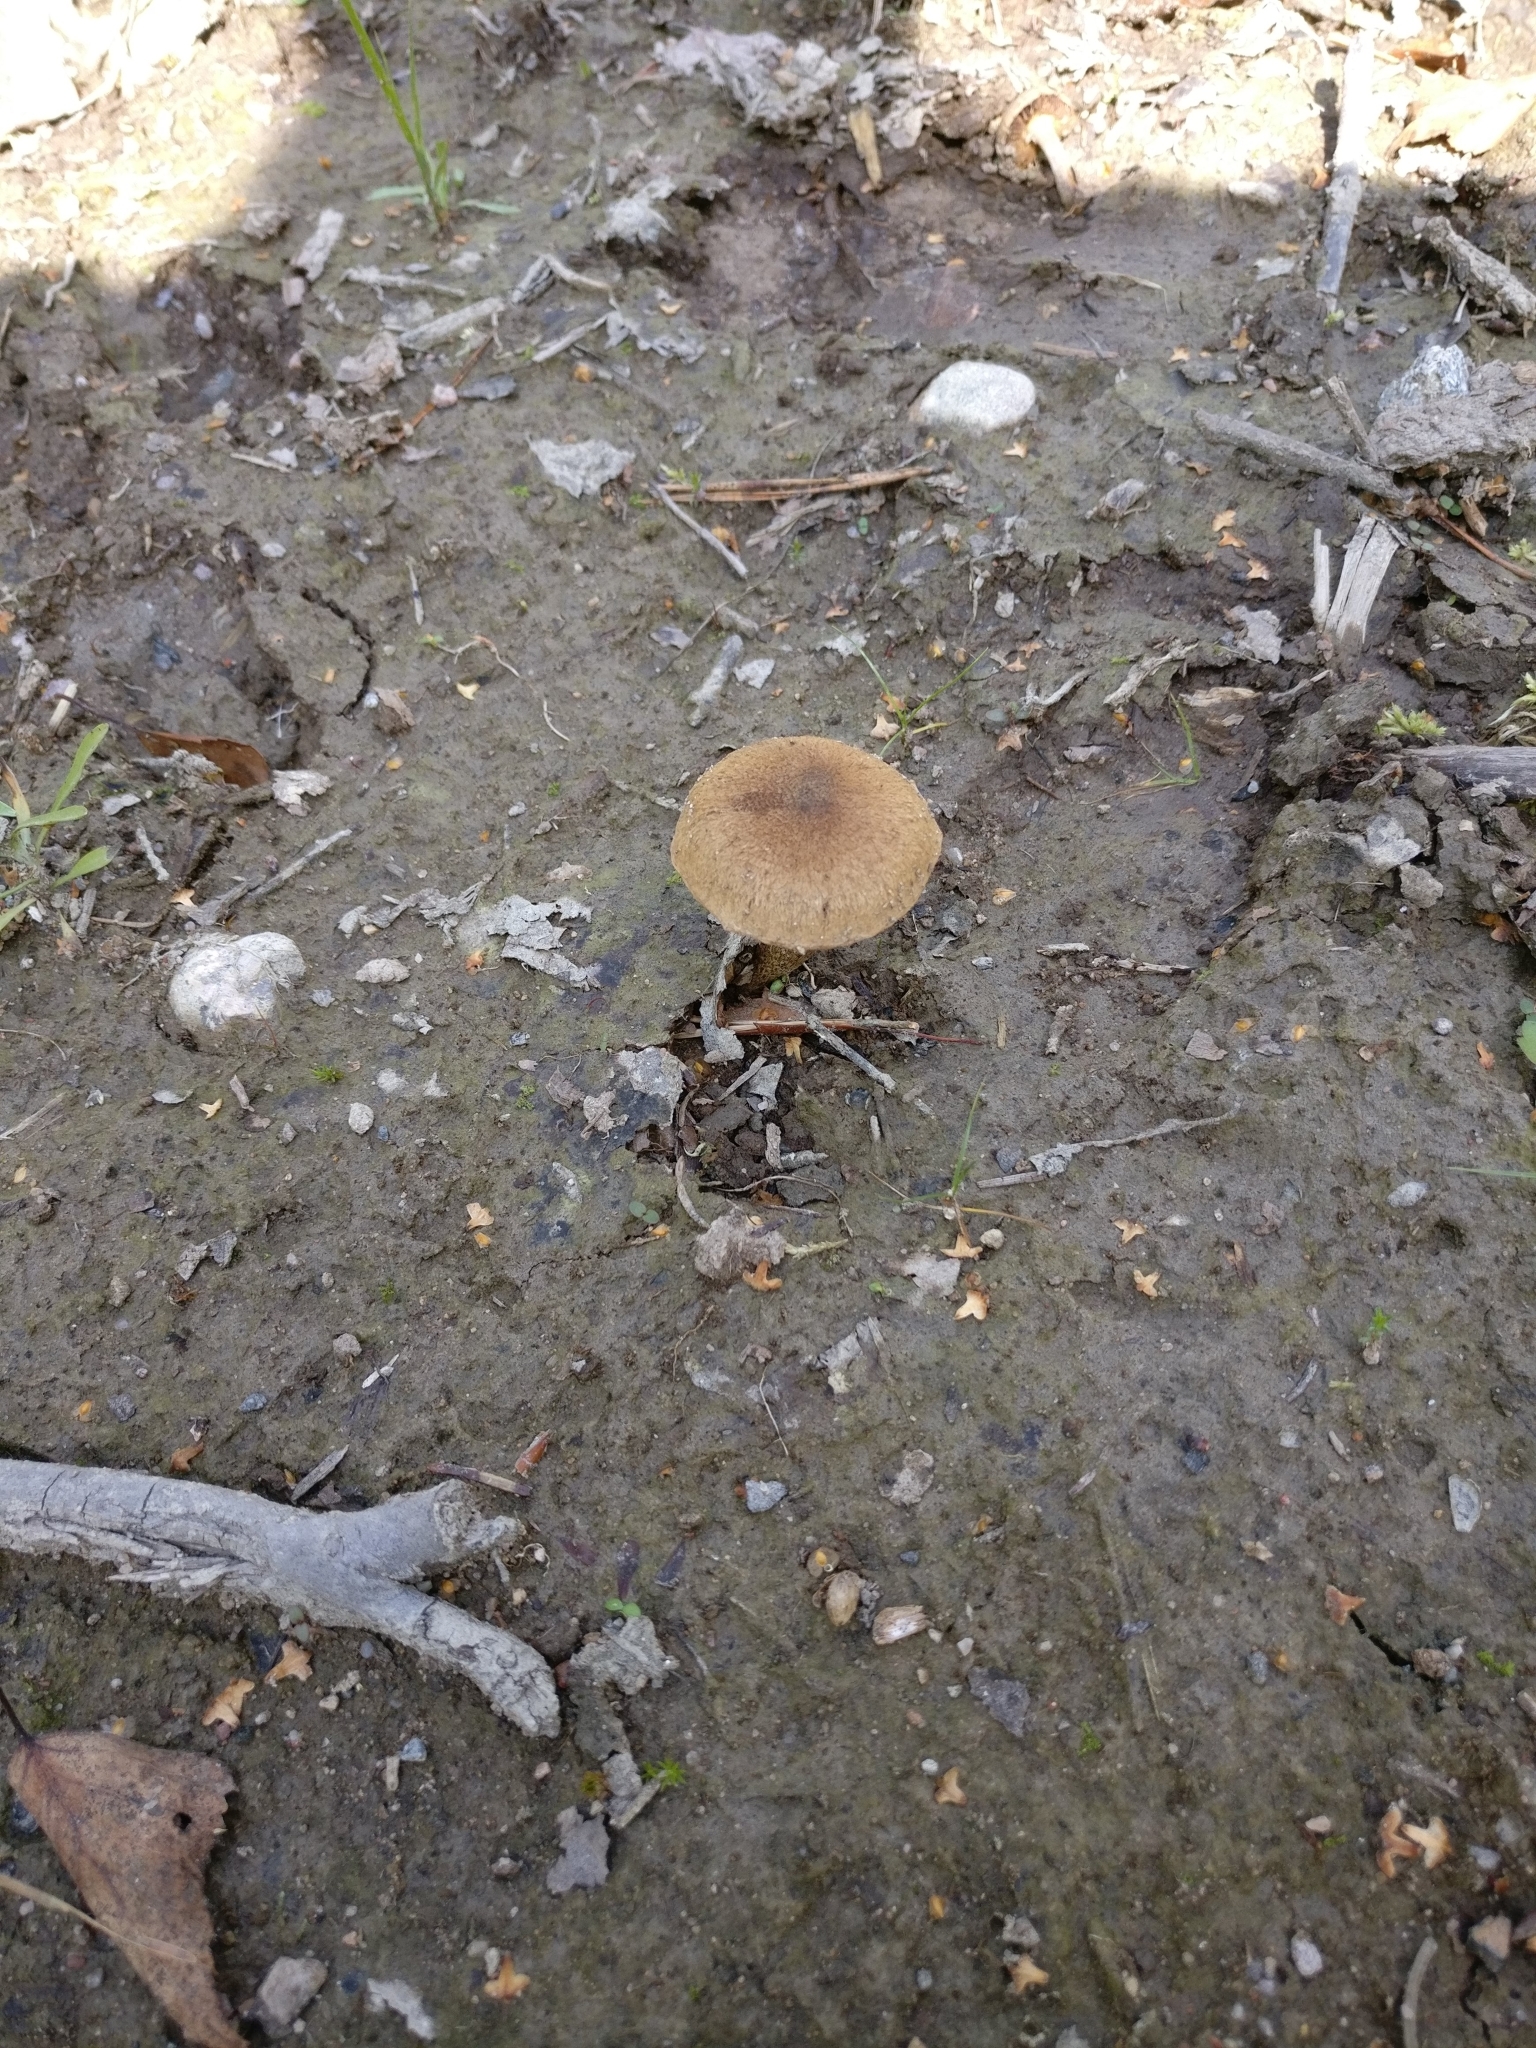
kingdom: Fungi
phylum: Basidiomycota
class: Agaricomycetes
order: Agaricales
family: Inocybaceae
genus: Inocybe
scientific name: Inocybe lacera
